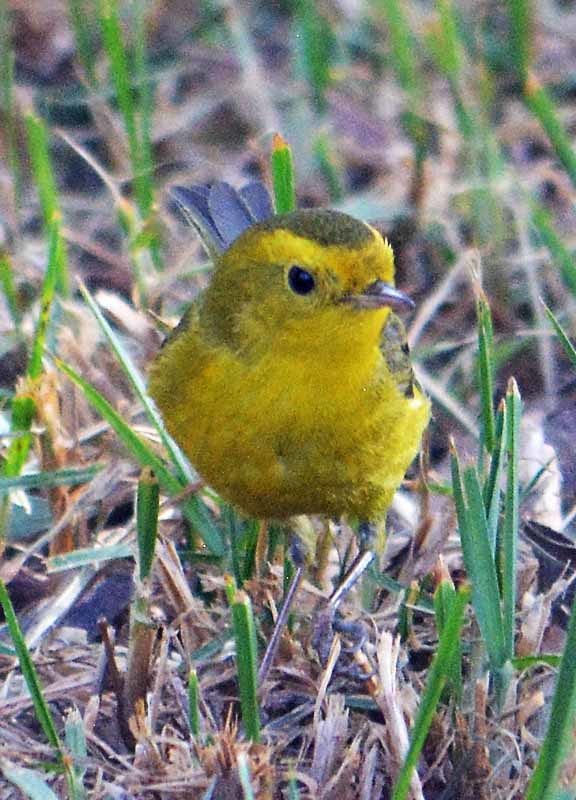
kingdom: Animalia
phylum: Chordata
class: Aves
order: Passeriformes
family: Parulidae
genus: Cardellina
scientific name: Cardellina pusilla
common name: Wilson's warbler
